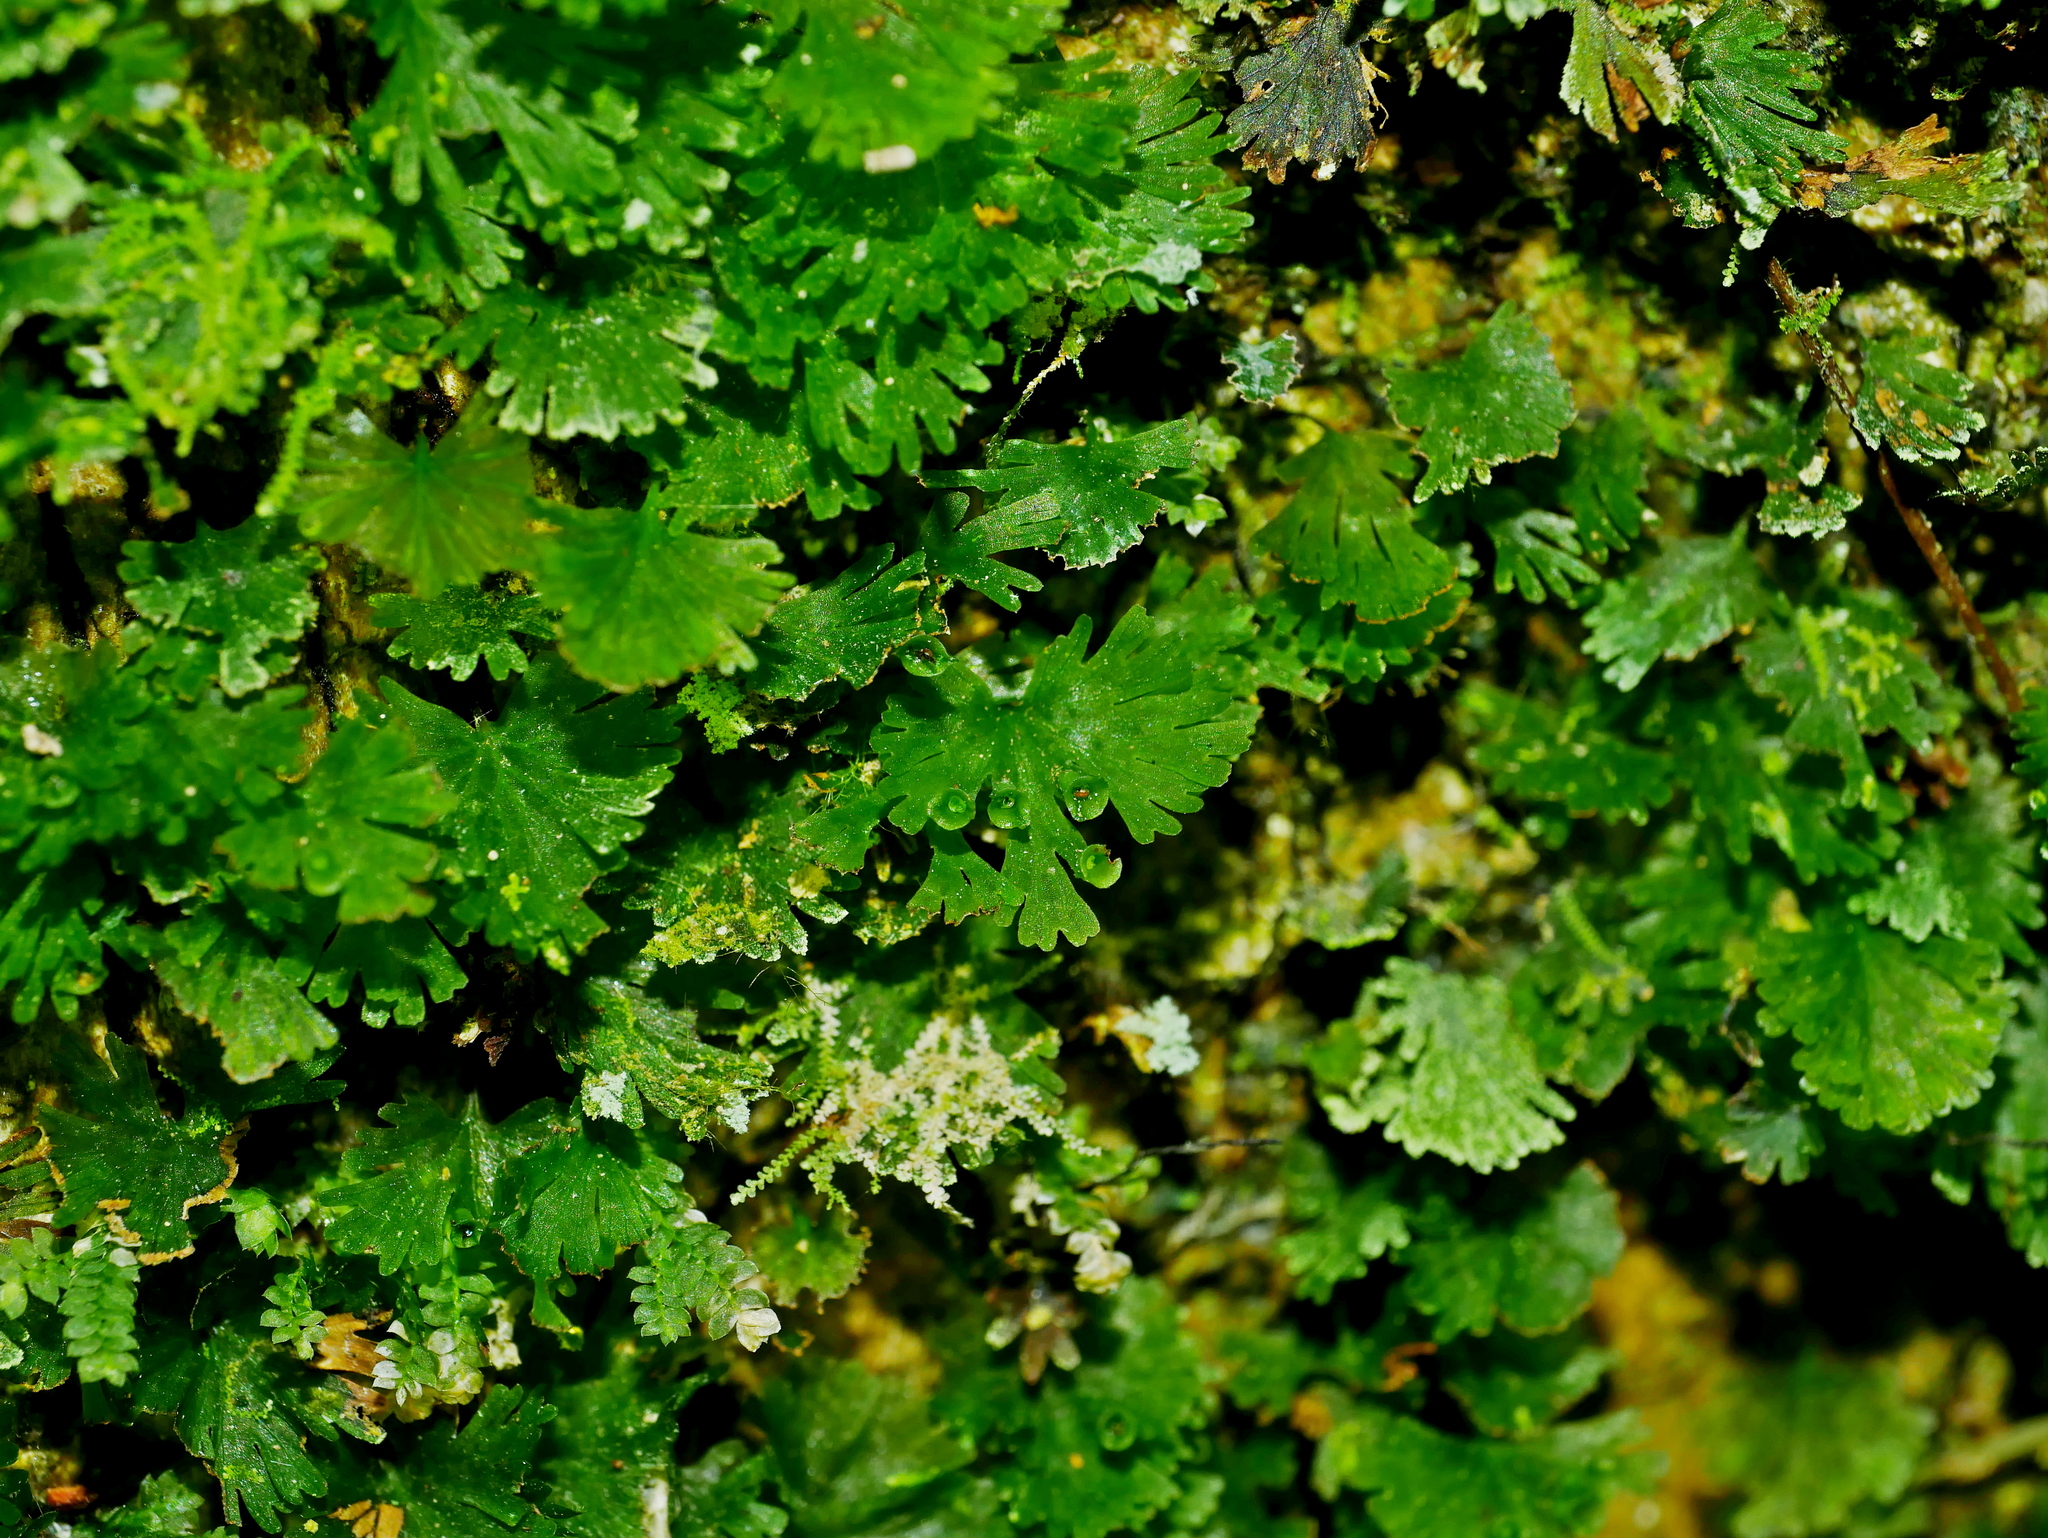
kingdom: Plantae
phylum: Tracheophyta
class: Polypodiopsida
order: Hymenophyllales
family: Hymenophyllaceae
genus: Crepidomanes
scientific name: Crepidomanes parvulum
